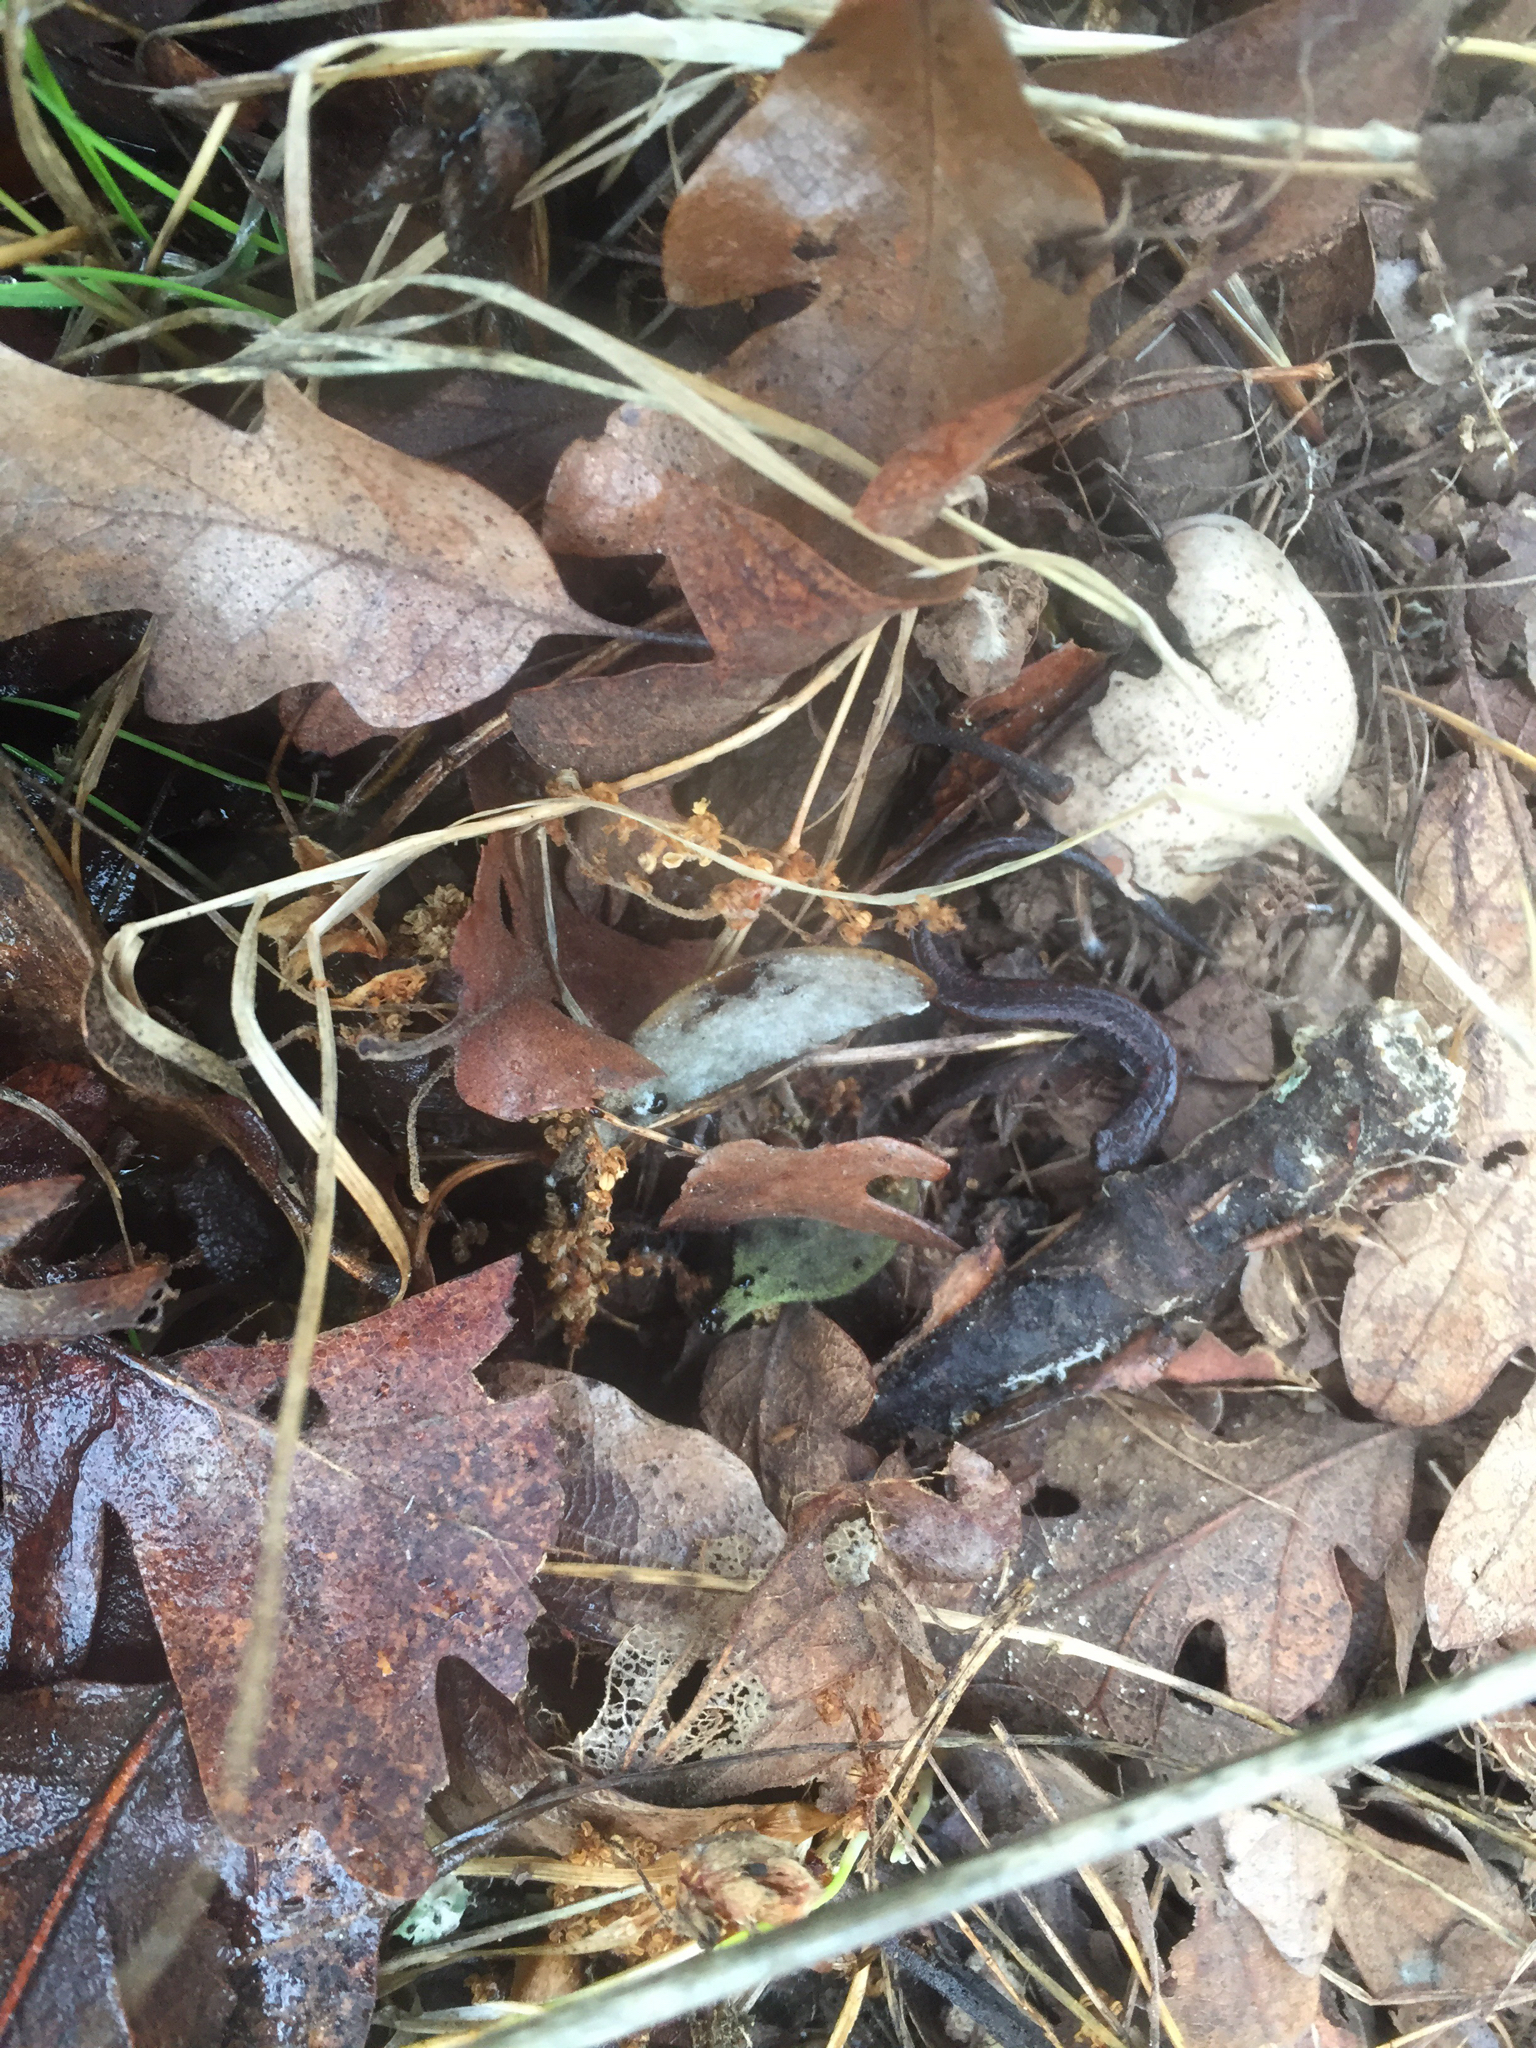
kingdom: Animalia
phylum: Chordata
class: Amphibia
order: Caudata
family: Plethodontidae
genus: Batrachoseps
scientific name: Batrachoseps attenuatus
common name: California slender salamander
